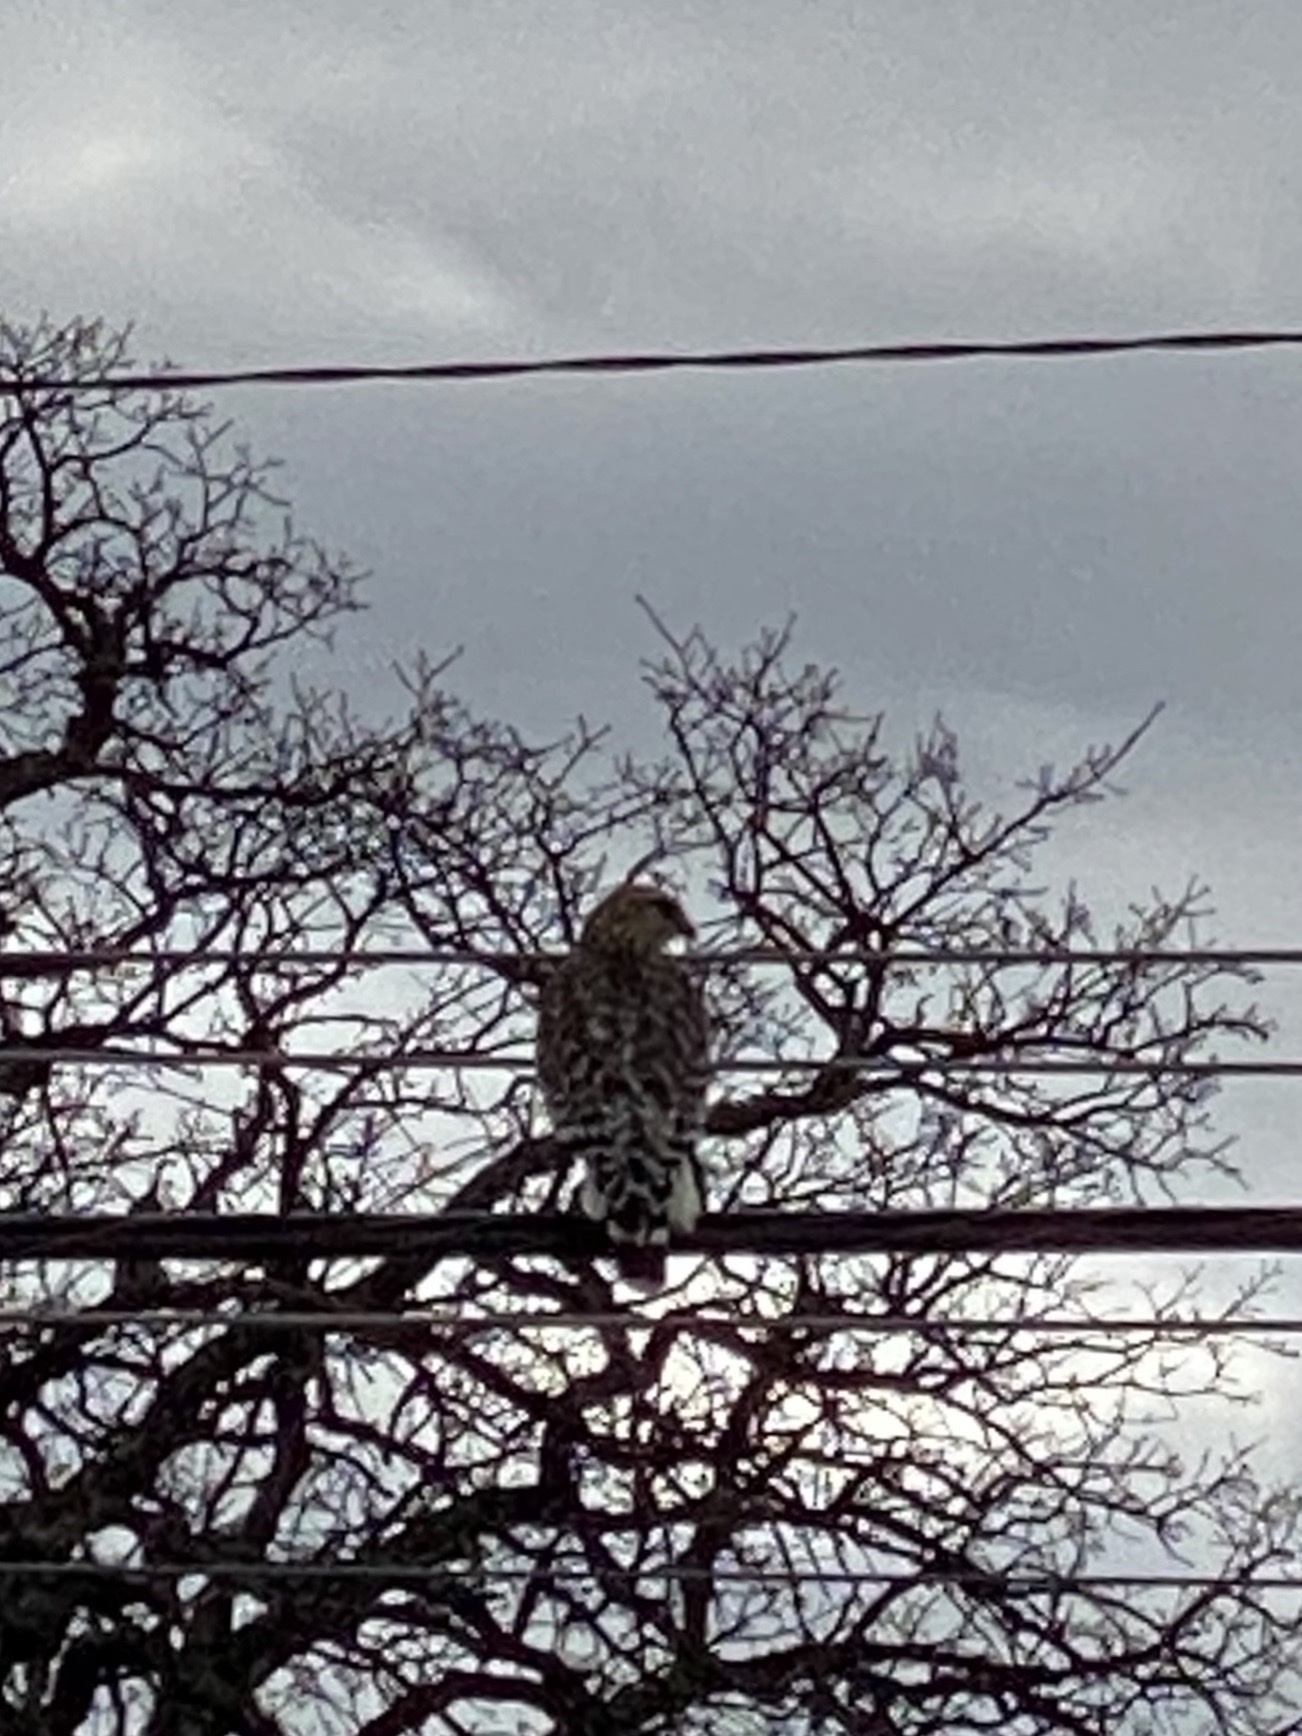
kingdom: Animalia
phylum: Chordata
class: Aves
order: Accipitriformes
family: Accipitridae
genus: Buteo
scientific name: Buteo lineatus
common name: Red-shouldered hawk
